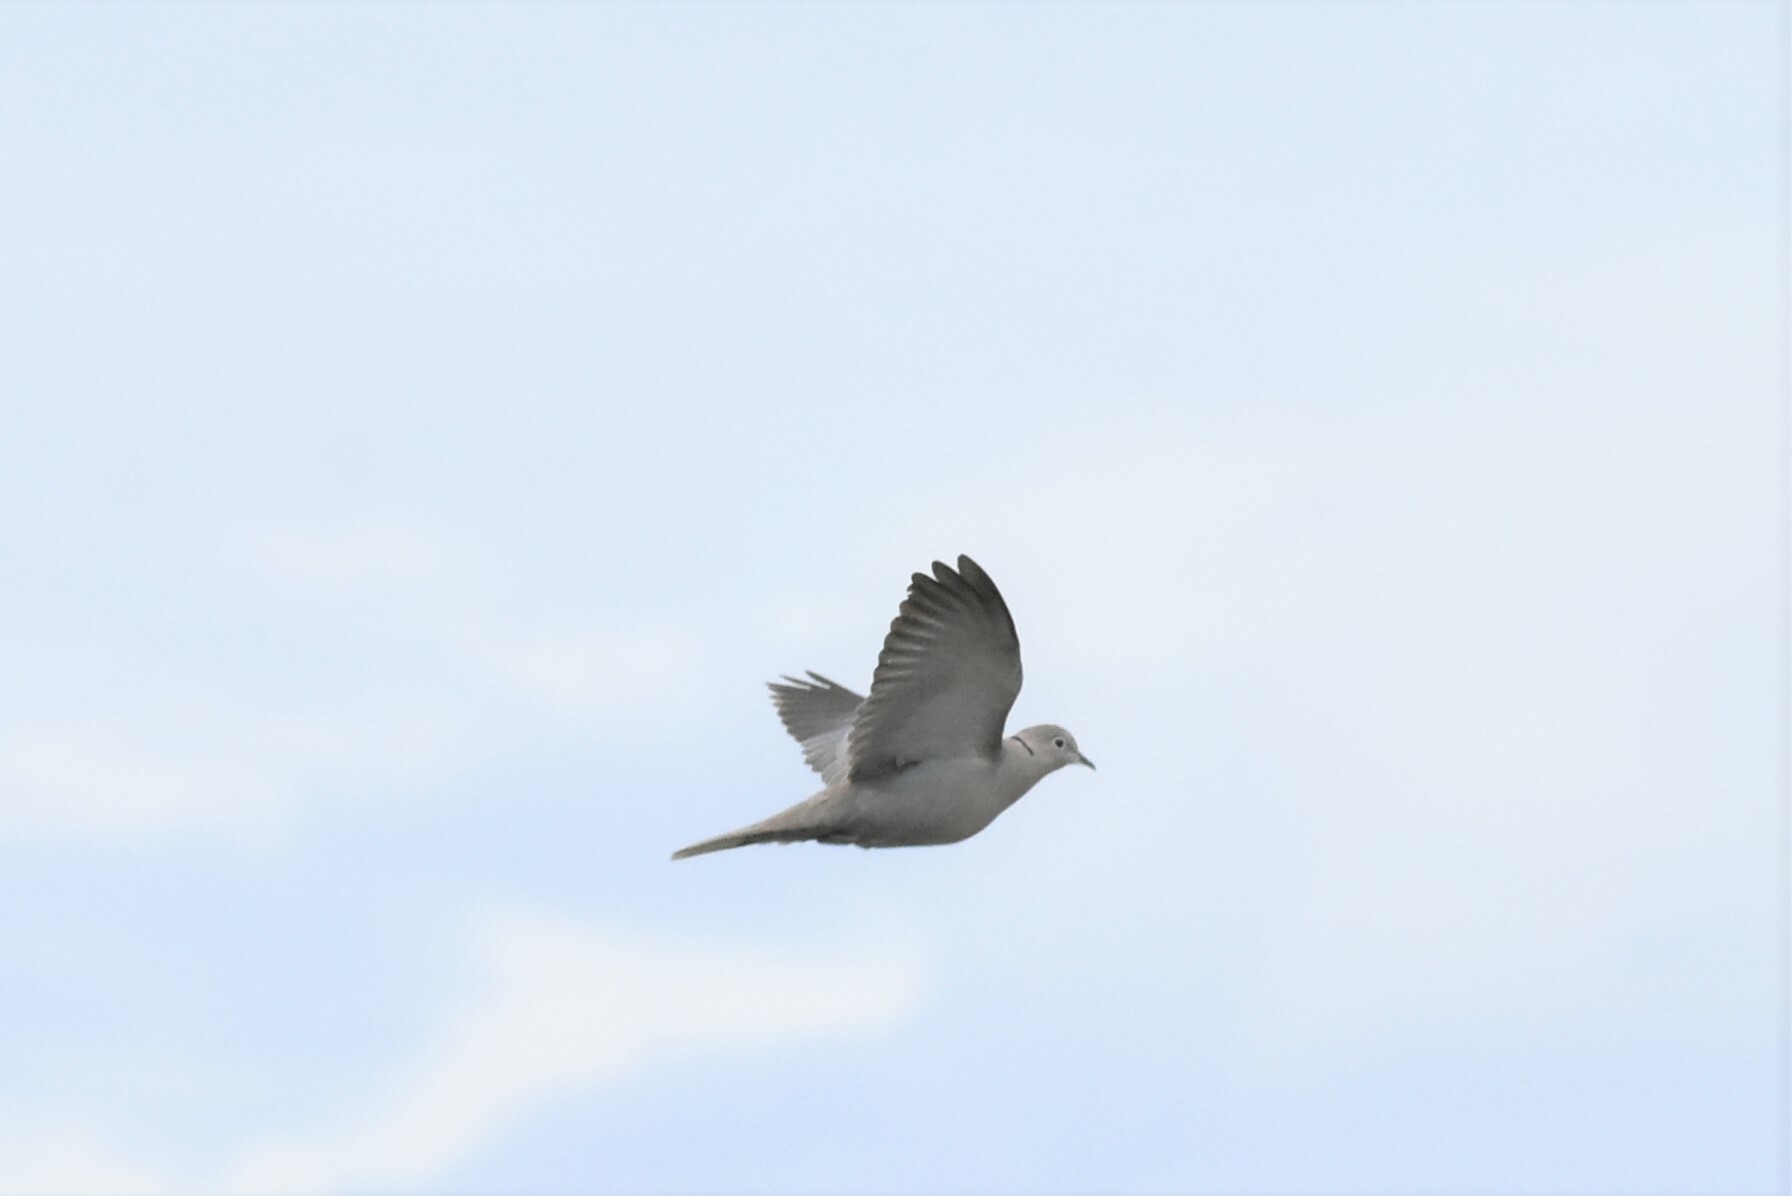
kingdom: Animalia
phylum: Chordata
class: Aves
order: Columbiformes
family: Columbidae
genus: Streptopelia
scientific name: Streptopelia decaocto
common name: Eurasian collared dove
